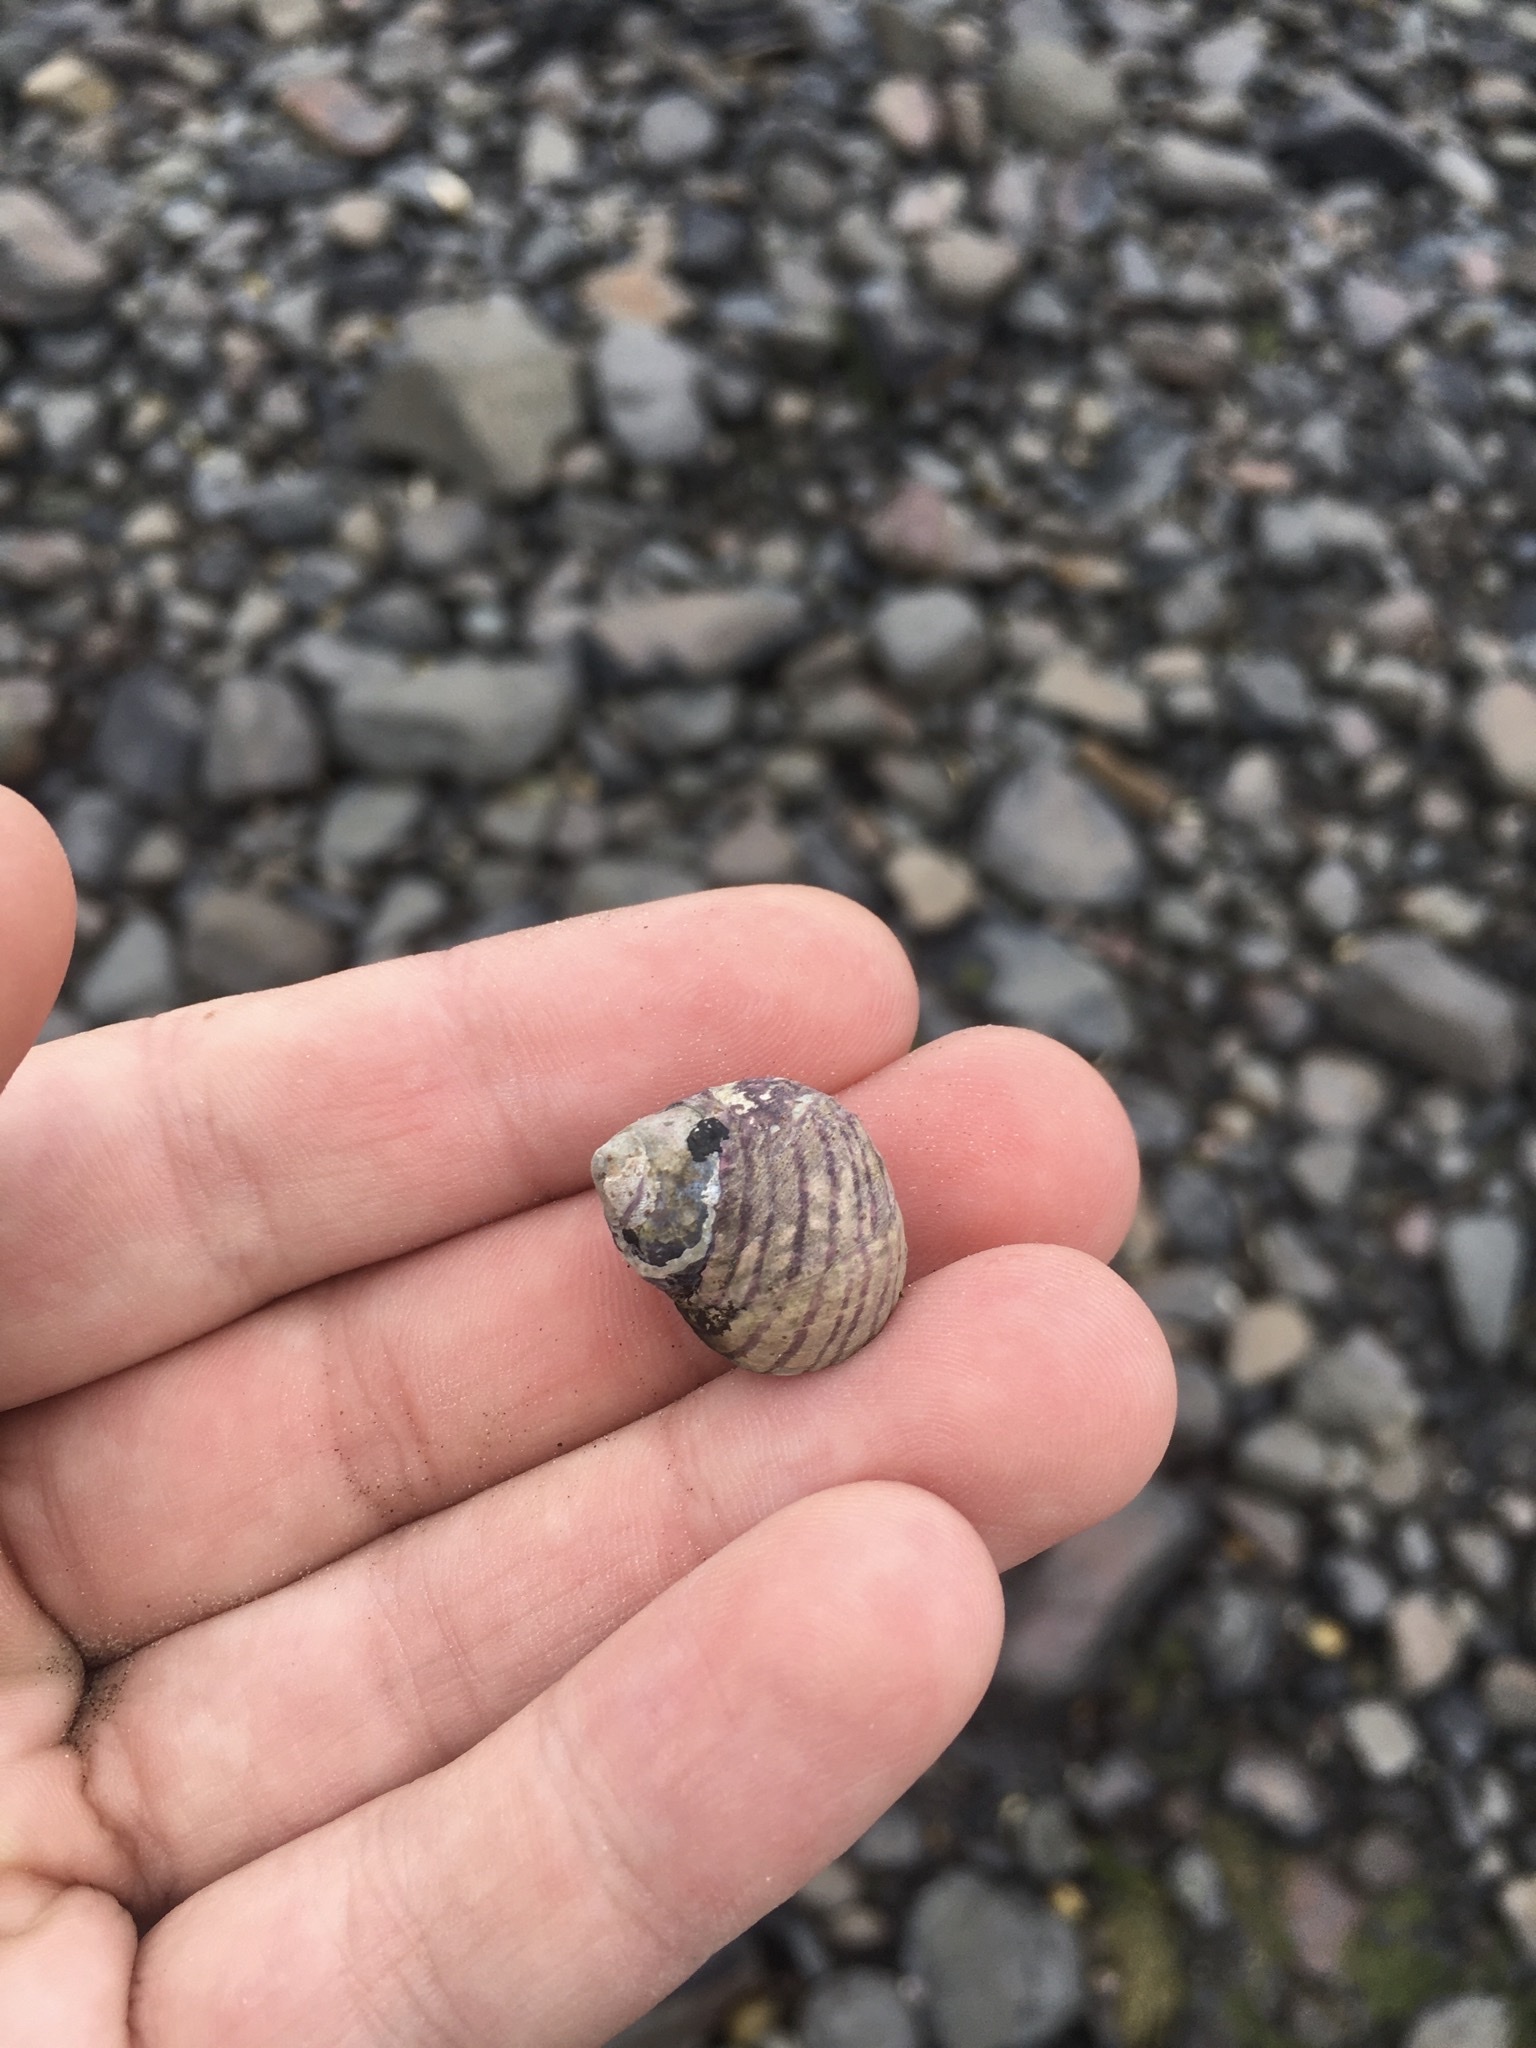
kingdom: Animalia
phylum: Mollusca
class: Gastropoda
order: Trochida
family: Trochidae
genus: Diloma
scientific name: Diloma aethiops
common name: Scorched monodont
